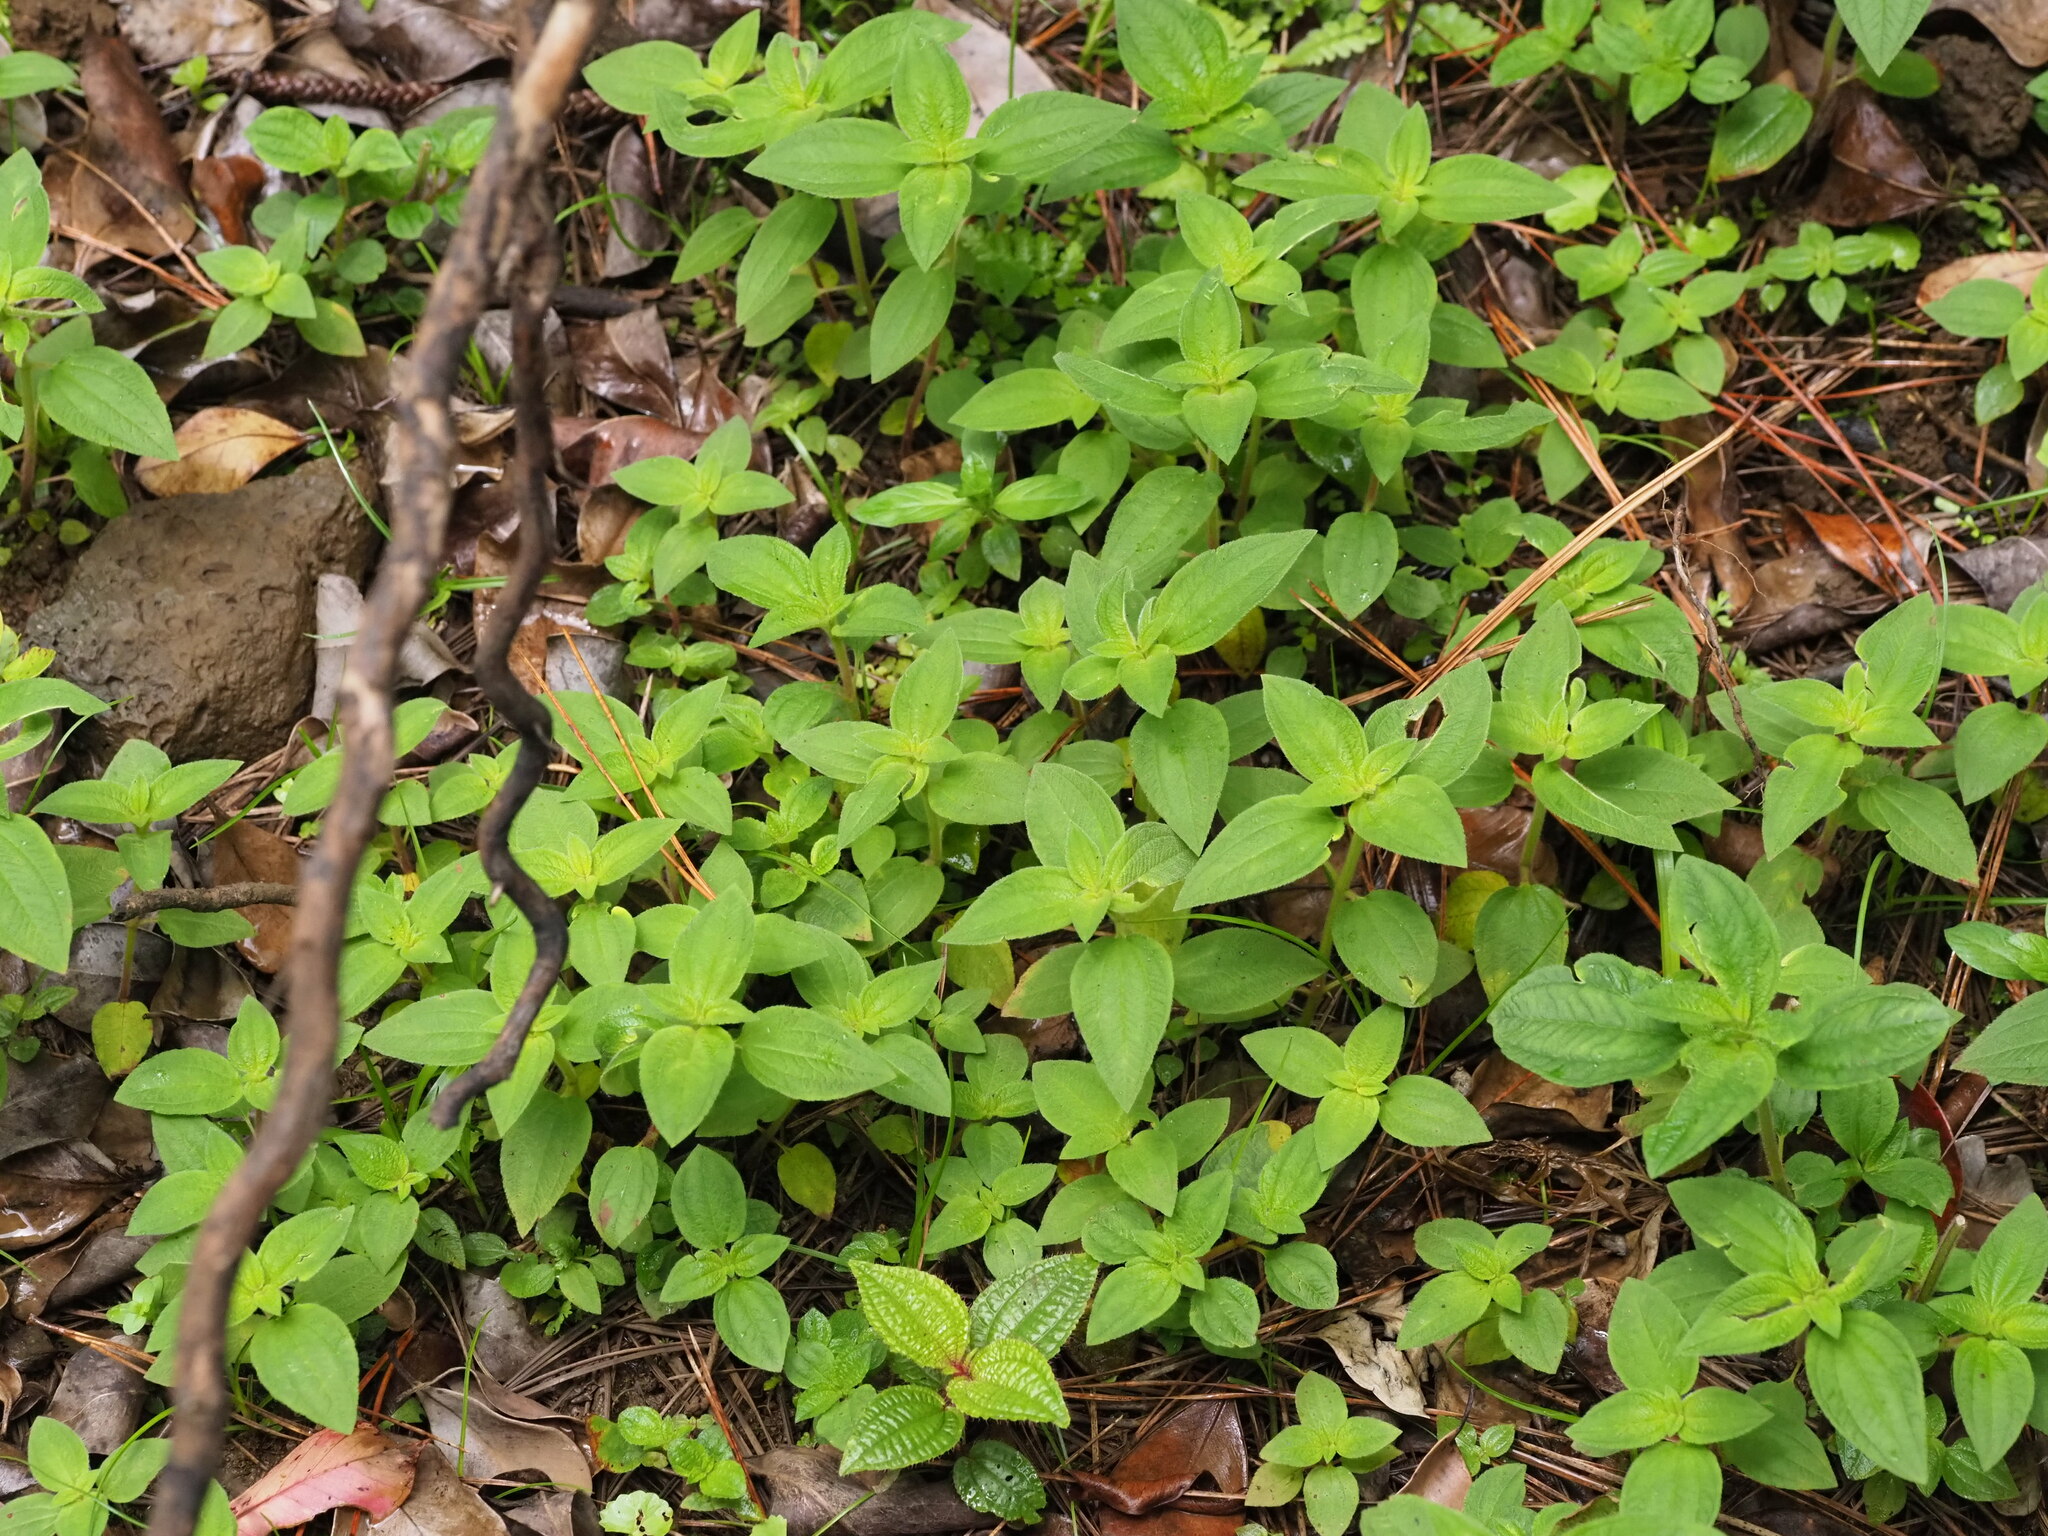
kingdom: Plantae
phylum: Tracheophyta
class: Magnoliopsida
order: Myrtales
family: Melastomataceae
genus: Pleroma
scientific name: Pleroma urvilleanum
